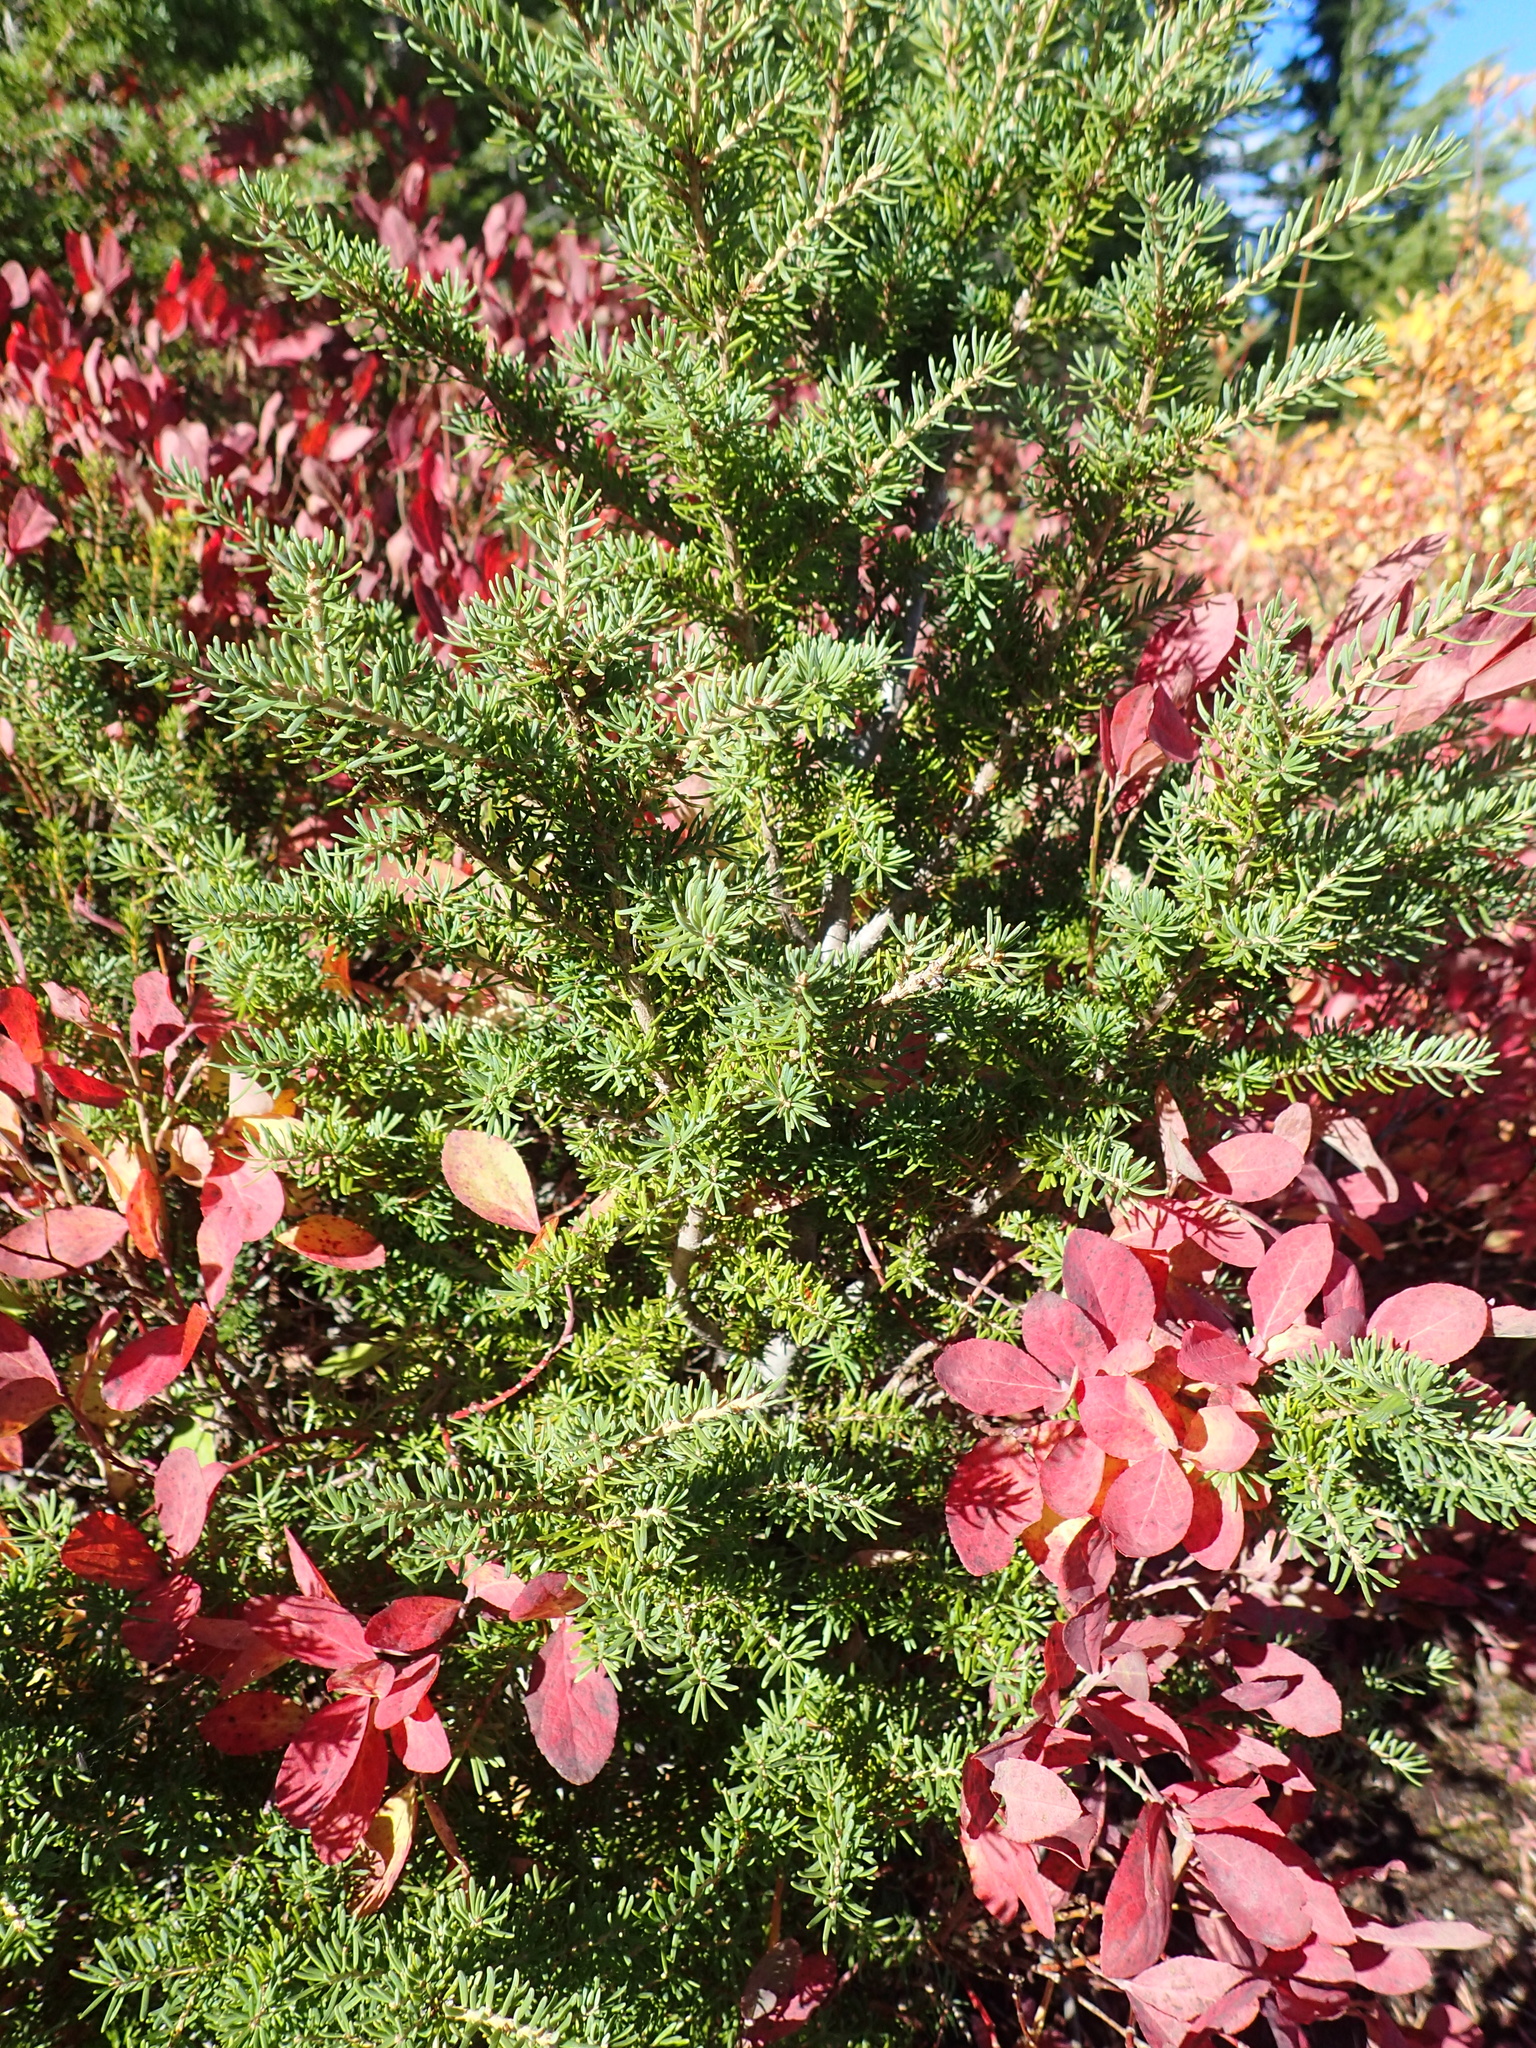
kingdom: Plantae
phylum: Tracheophyta
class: Pinopsida
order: Pinales
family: Pinaceae
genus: Tsuga
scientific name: Tsuga mertensiana
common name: Mountain hemlock
